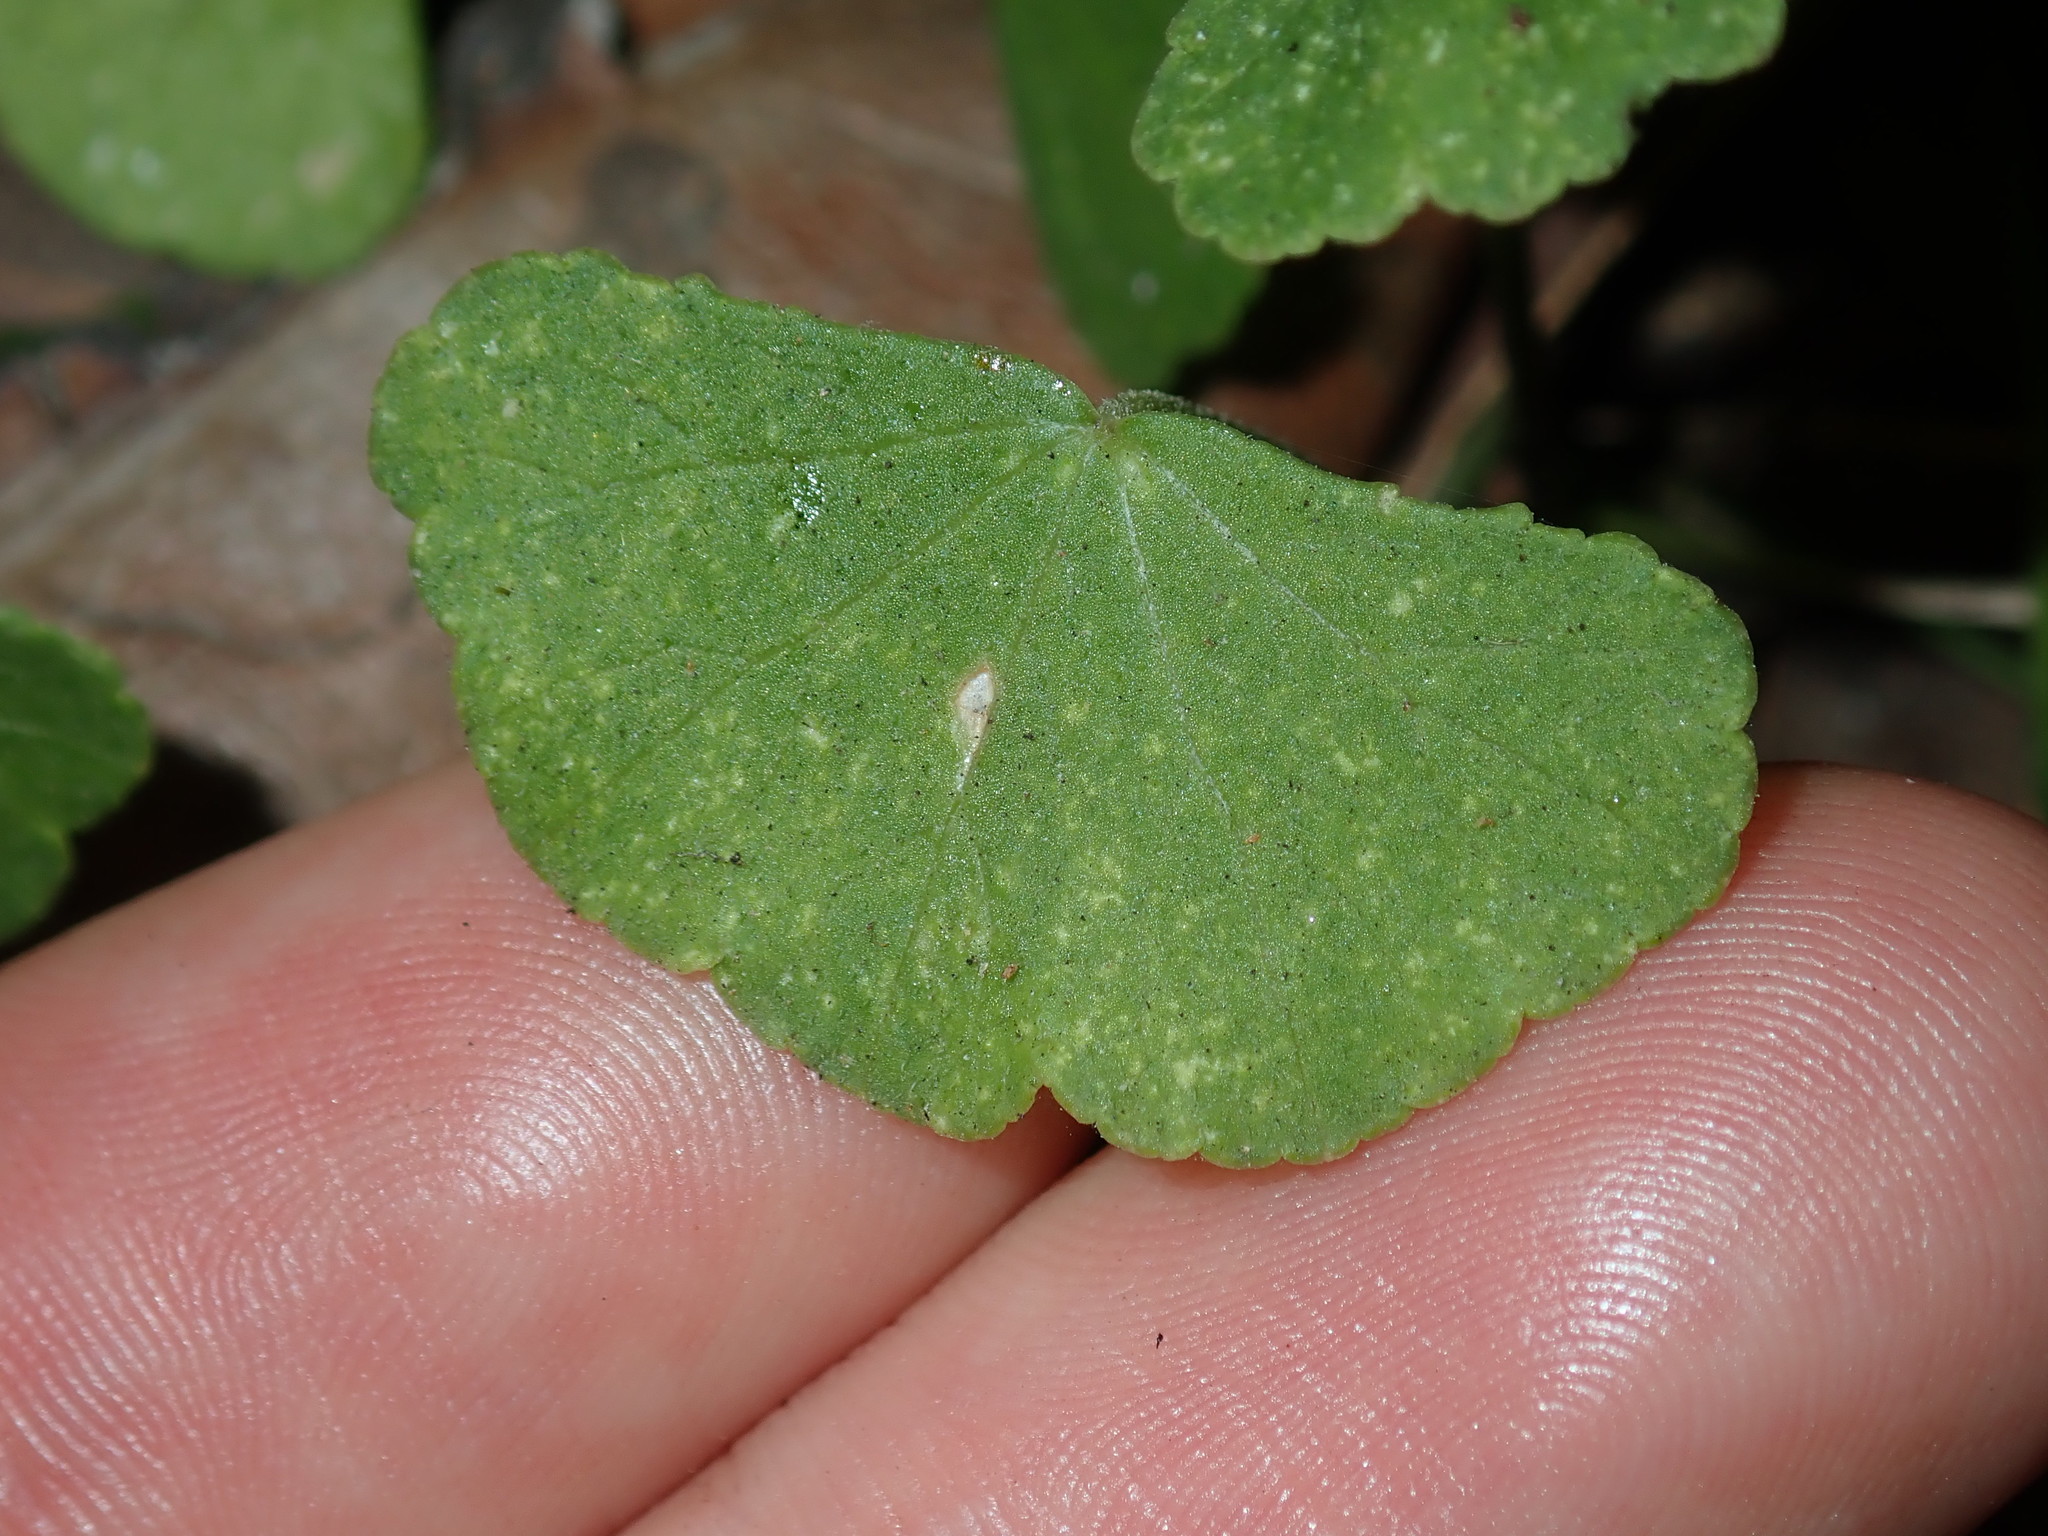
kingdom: Plantae
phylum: Tracheophyta
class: Magnoliopsida
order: Apiales
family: Araliaceae
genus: Hydrocotyle
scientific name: Hydrocotyle hirta
